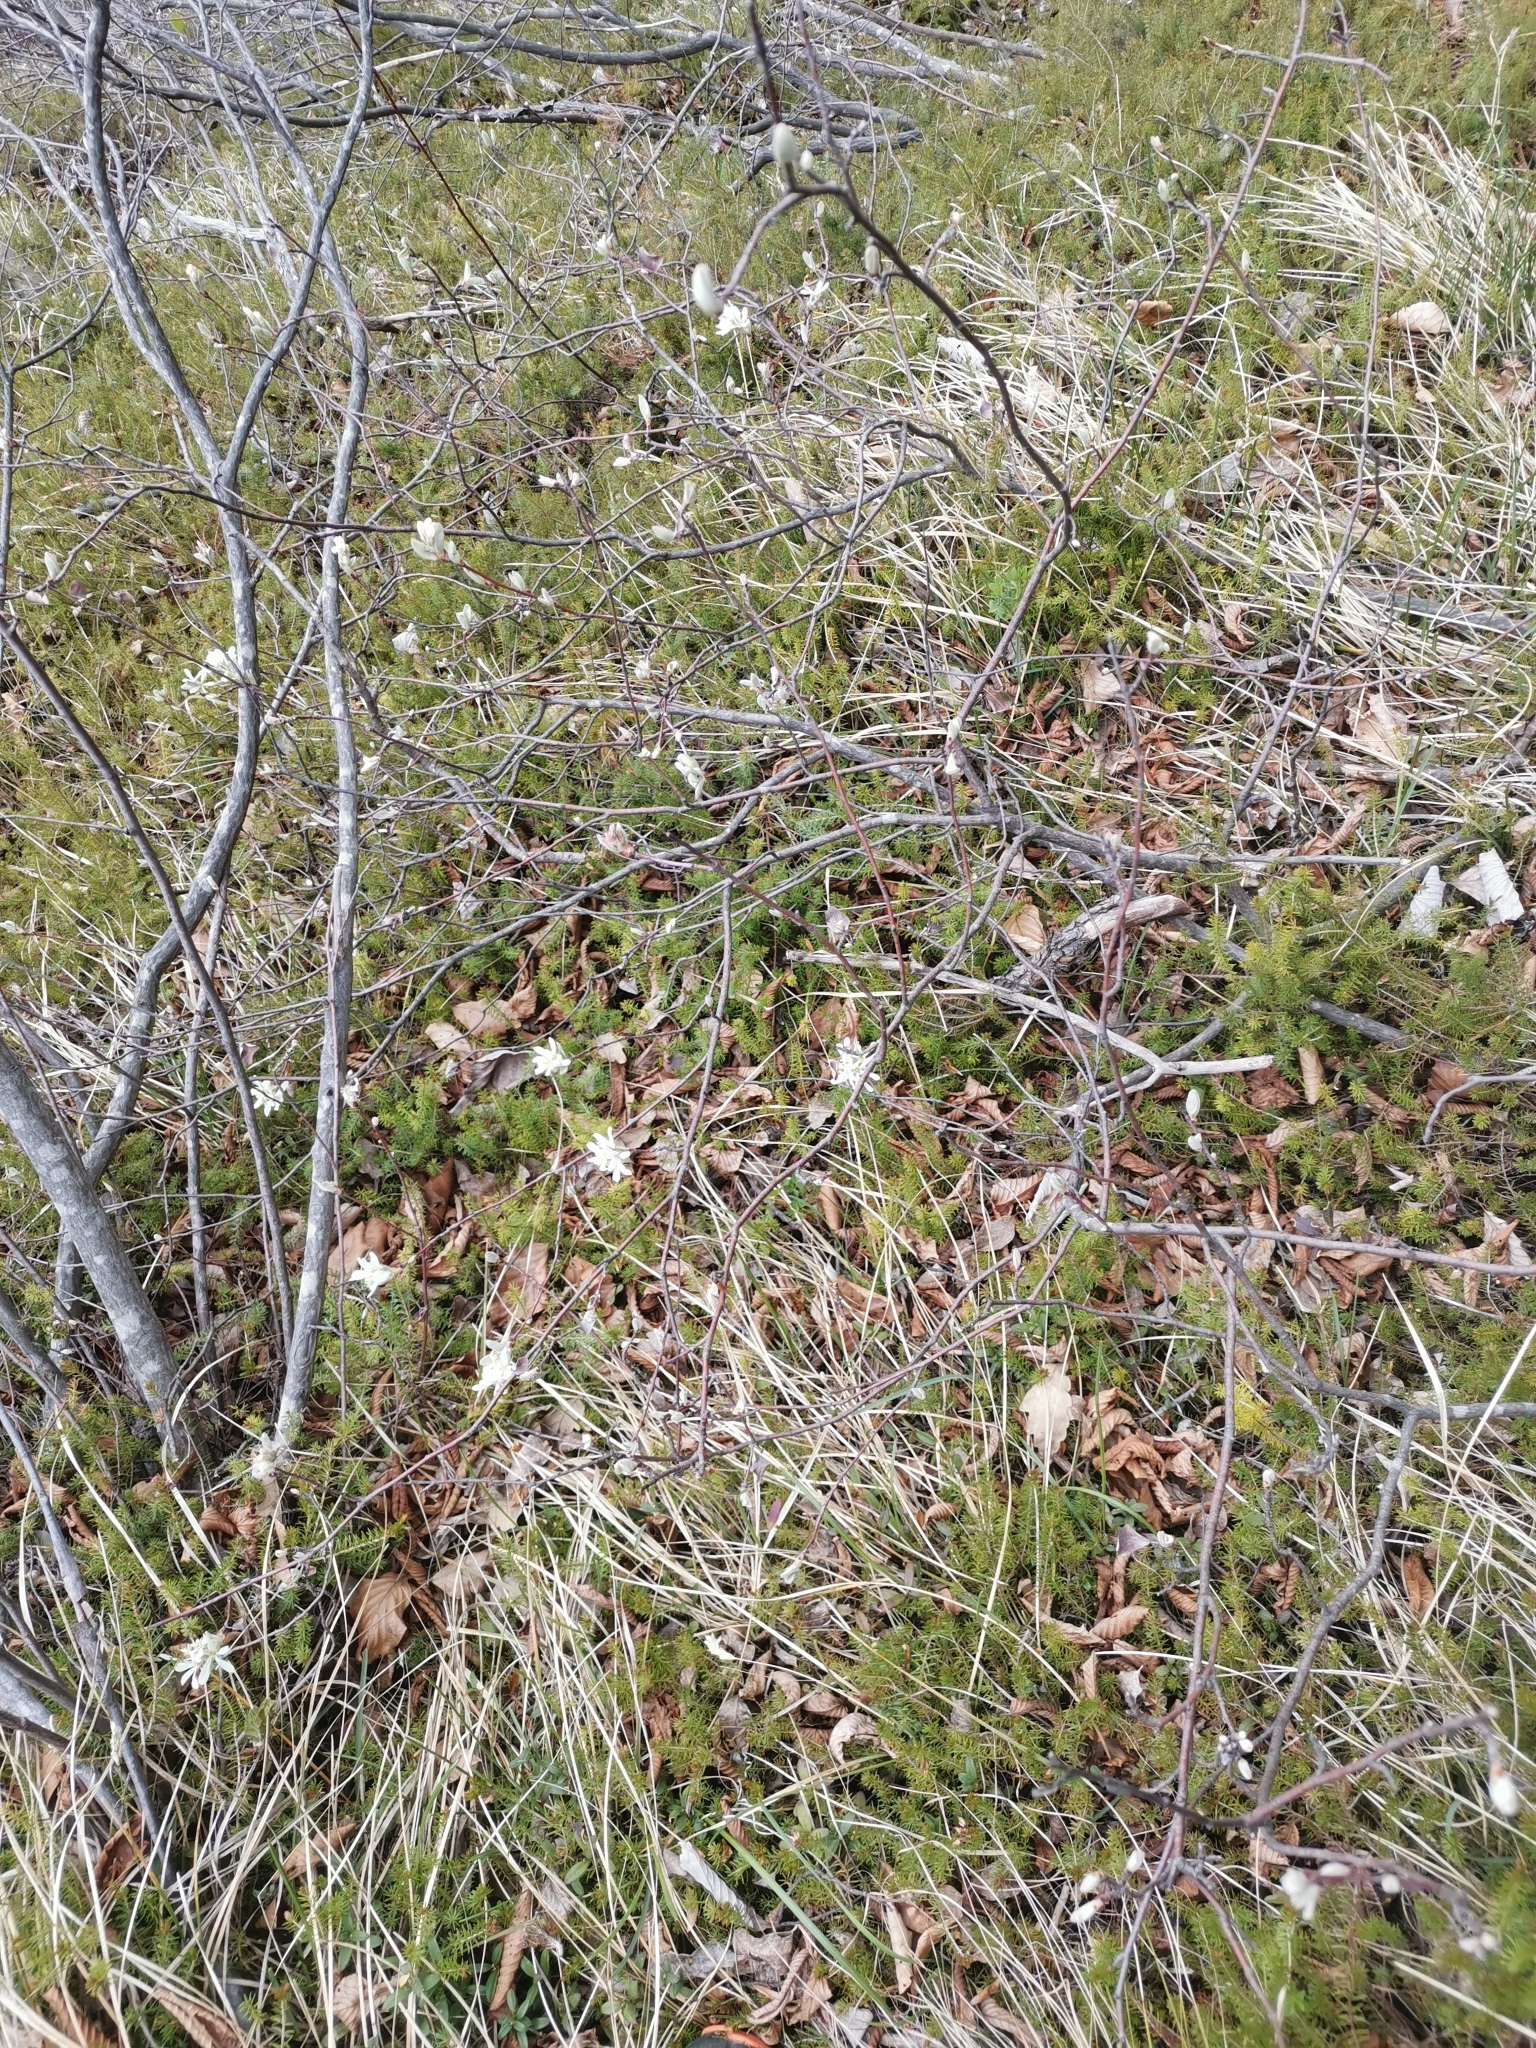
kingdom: Plantae
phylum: Tracheophyta
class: Magnoliopsida
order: Rosales
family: Rosaceae
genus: Amelanchier
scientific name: Amelanchier ovalis
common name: Serviceberry
